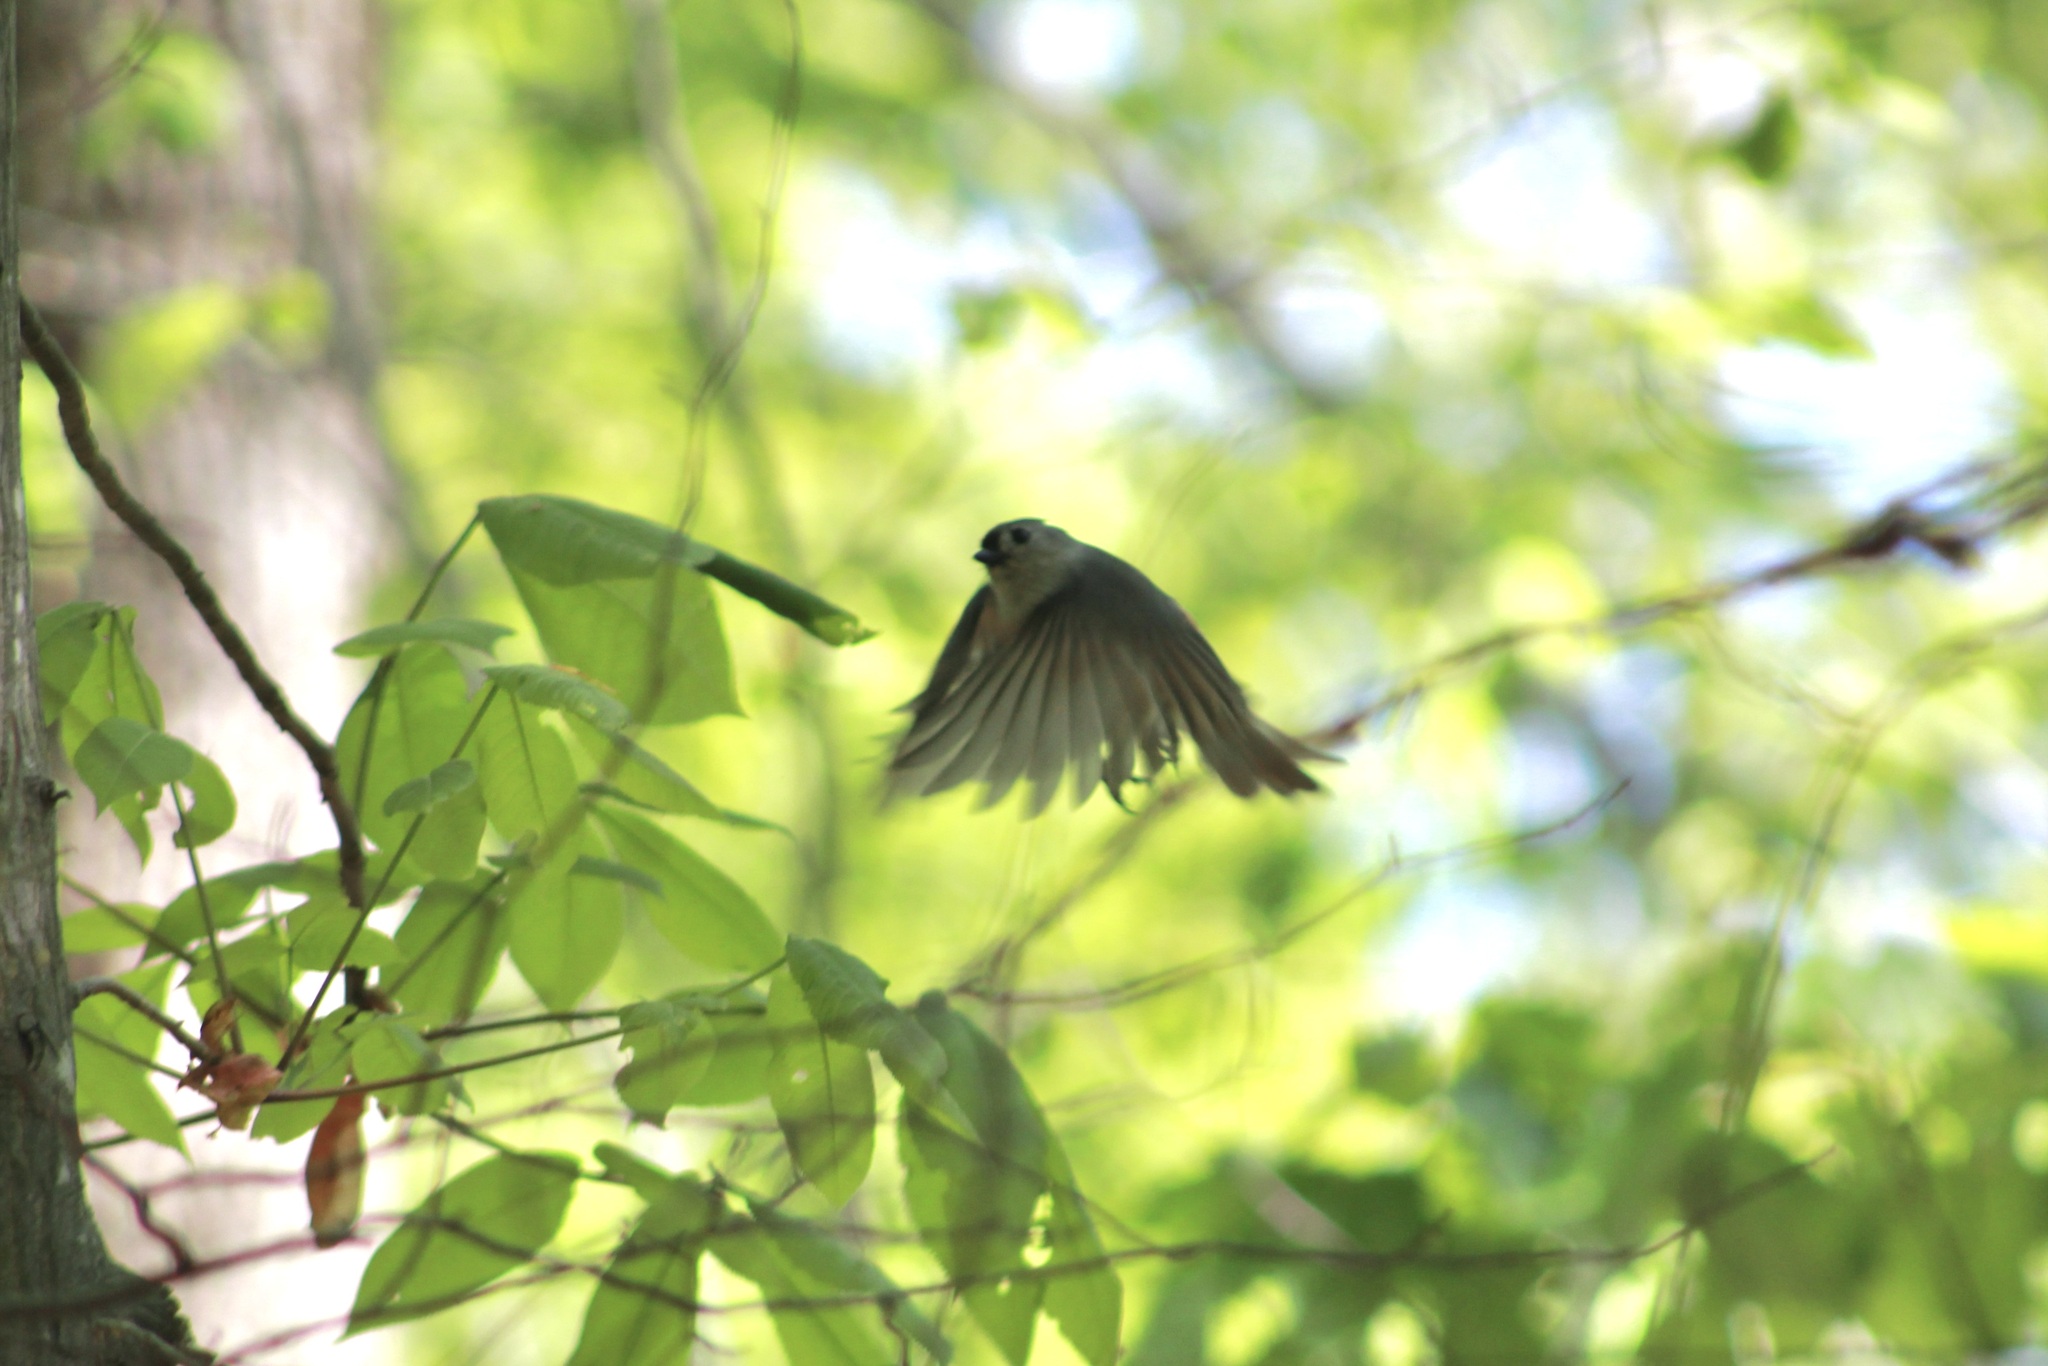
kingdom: Animalia
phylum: Chordata
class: Aves
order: Passeriformes
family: Paridae
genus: Baeolophus
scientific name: Baeolophus bicolor
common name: Tufted titmouse
